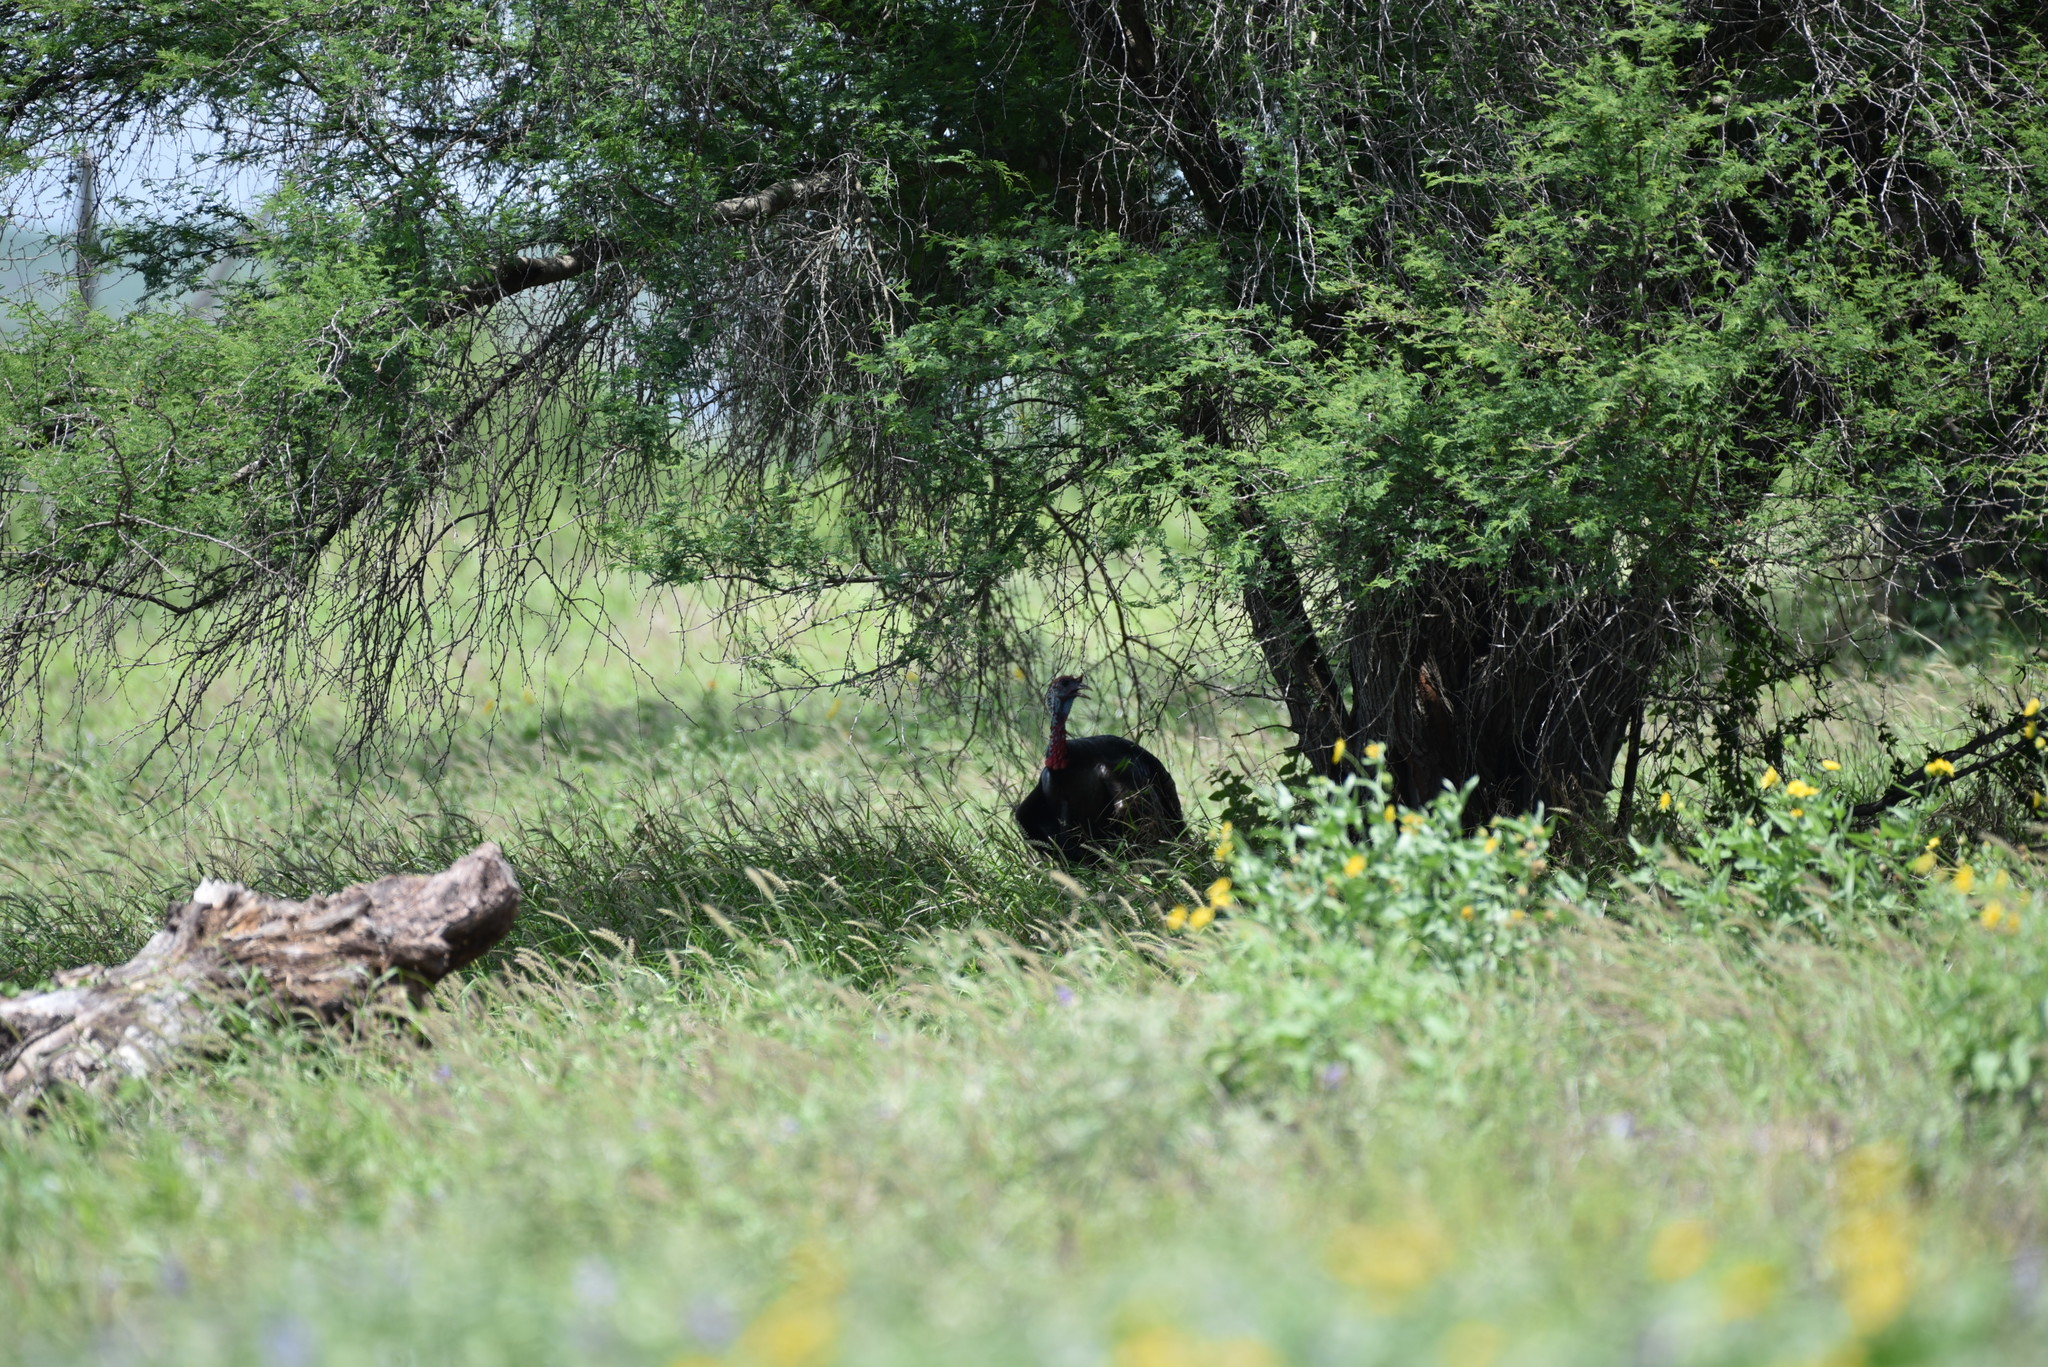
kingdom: Animalia
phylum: Chordata
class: Aves
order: Galliformes
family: Phasianidae
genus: Meleagris
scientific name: Meleagris gallopavo
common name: Wild turkey
